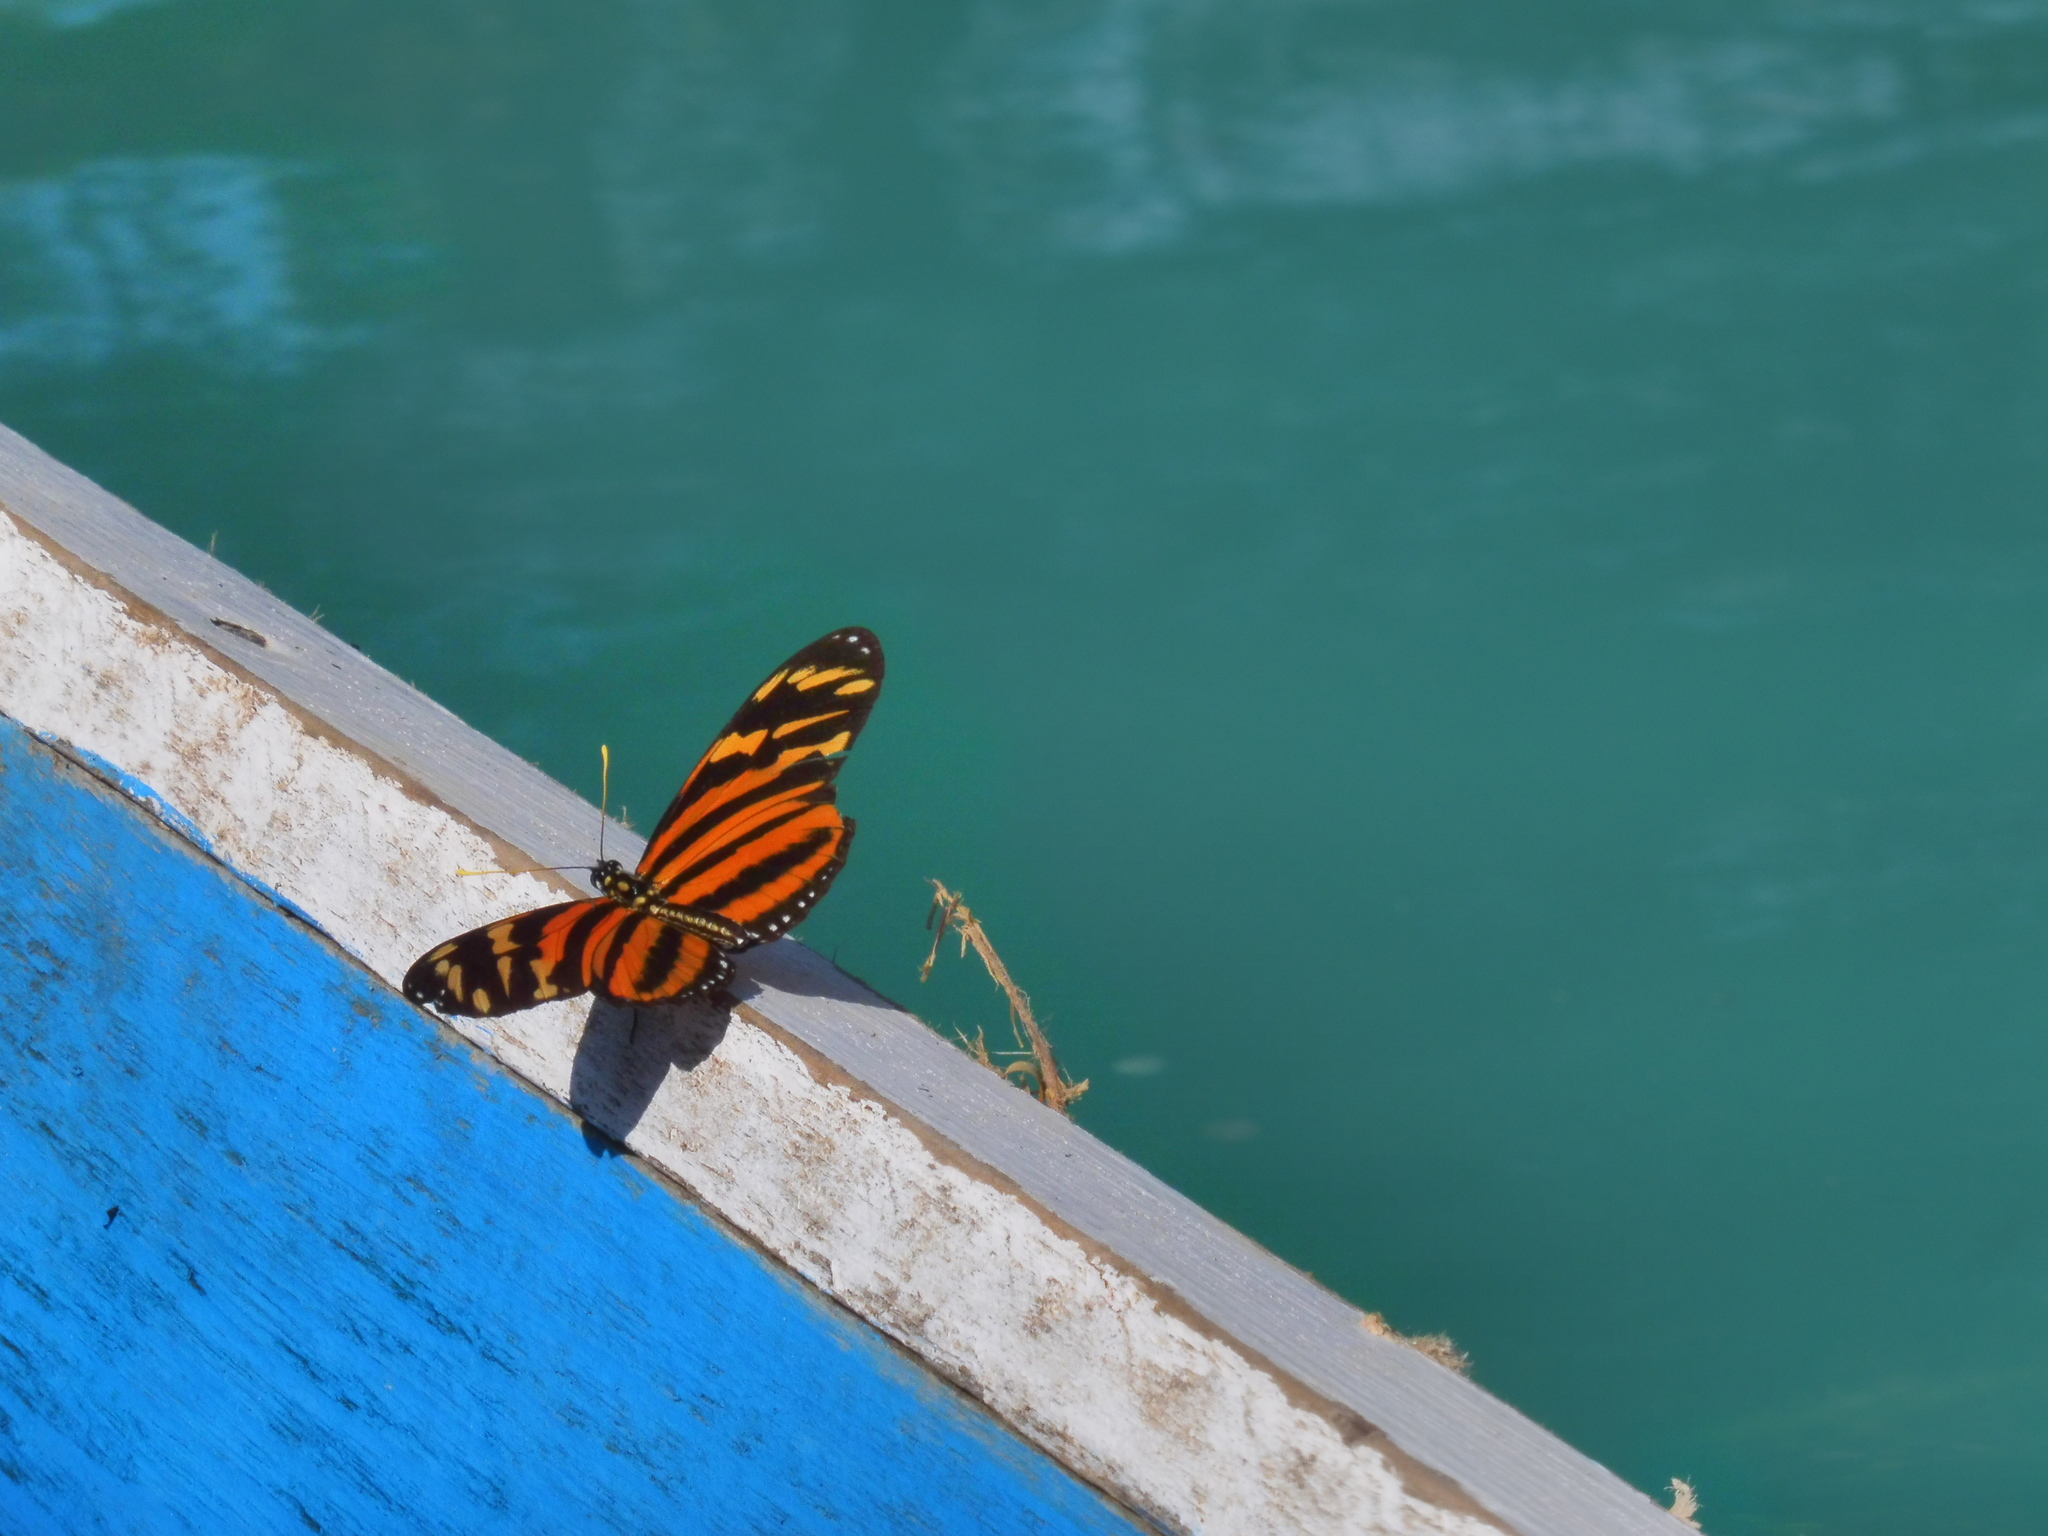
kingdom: Animalia
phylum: Arthropoda
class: Insecta
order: Lepidoptera
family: Nymphalidae
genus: Lycorea
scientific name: Lycorea eva
